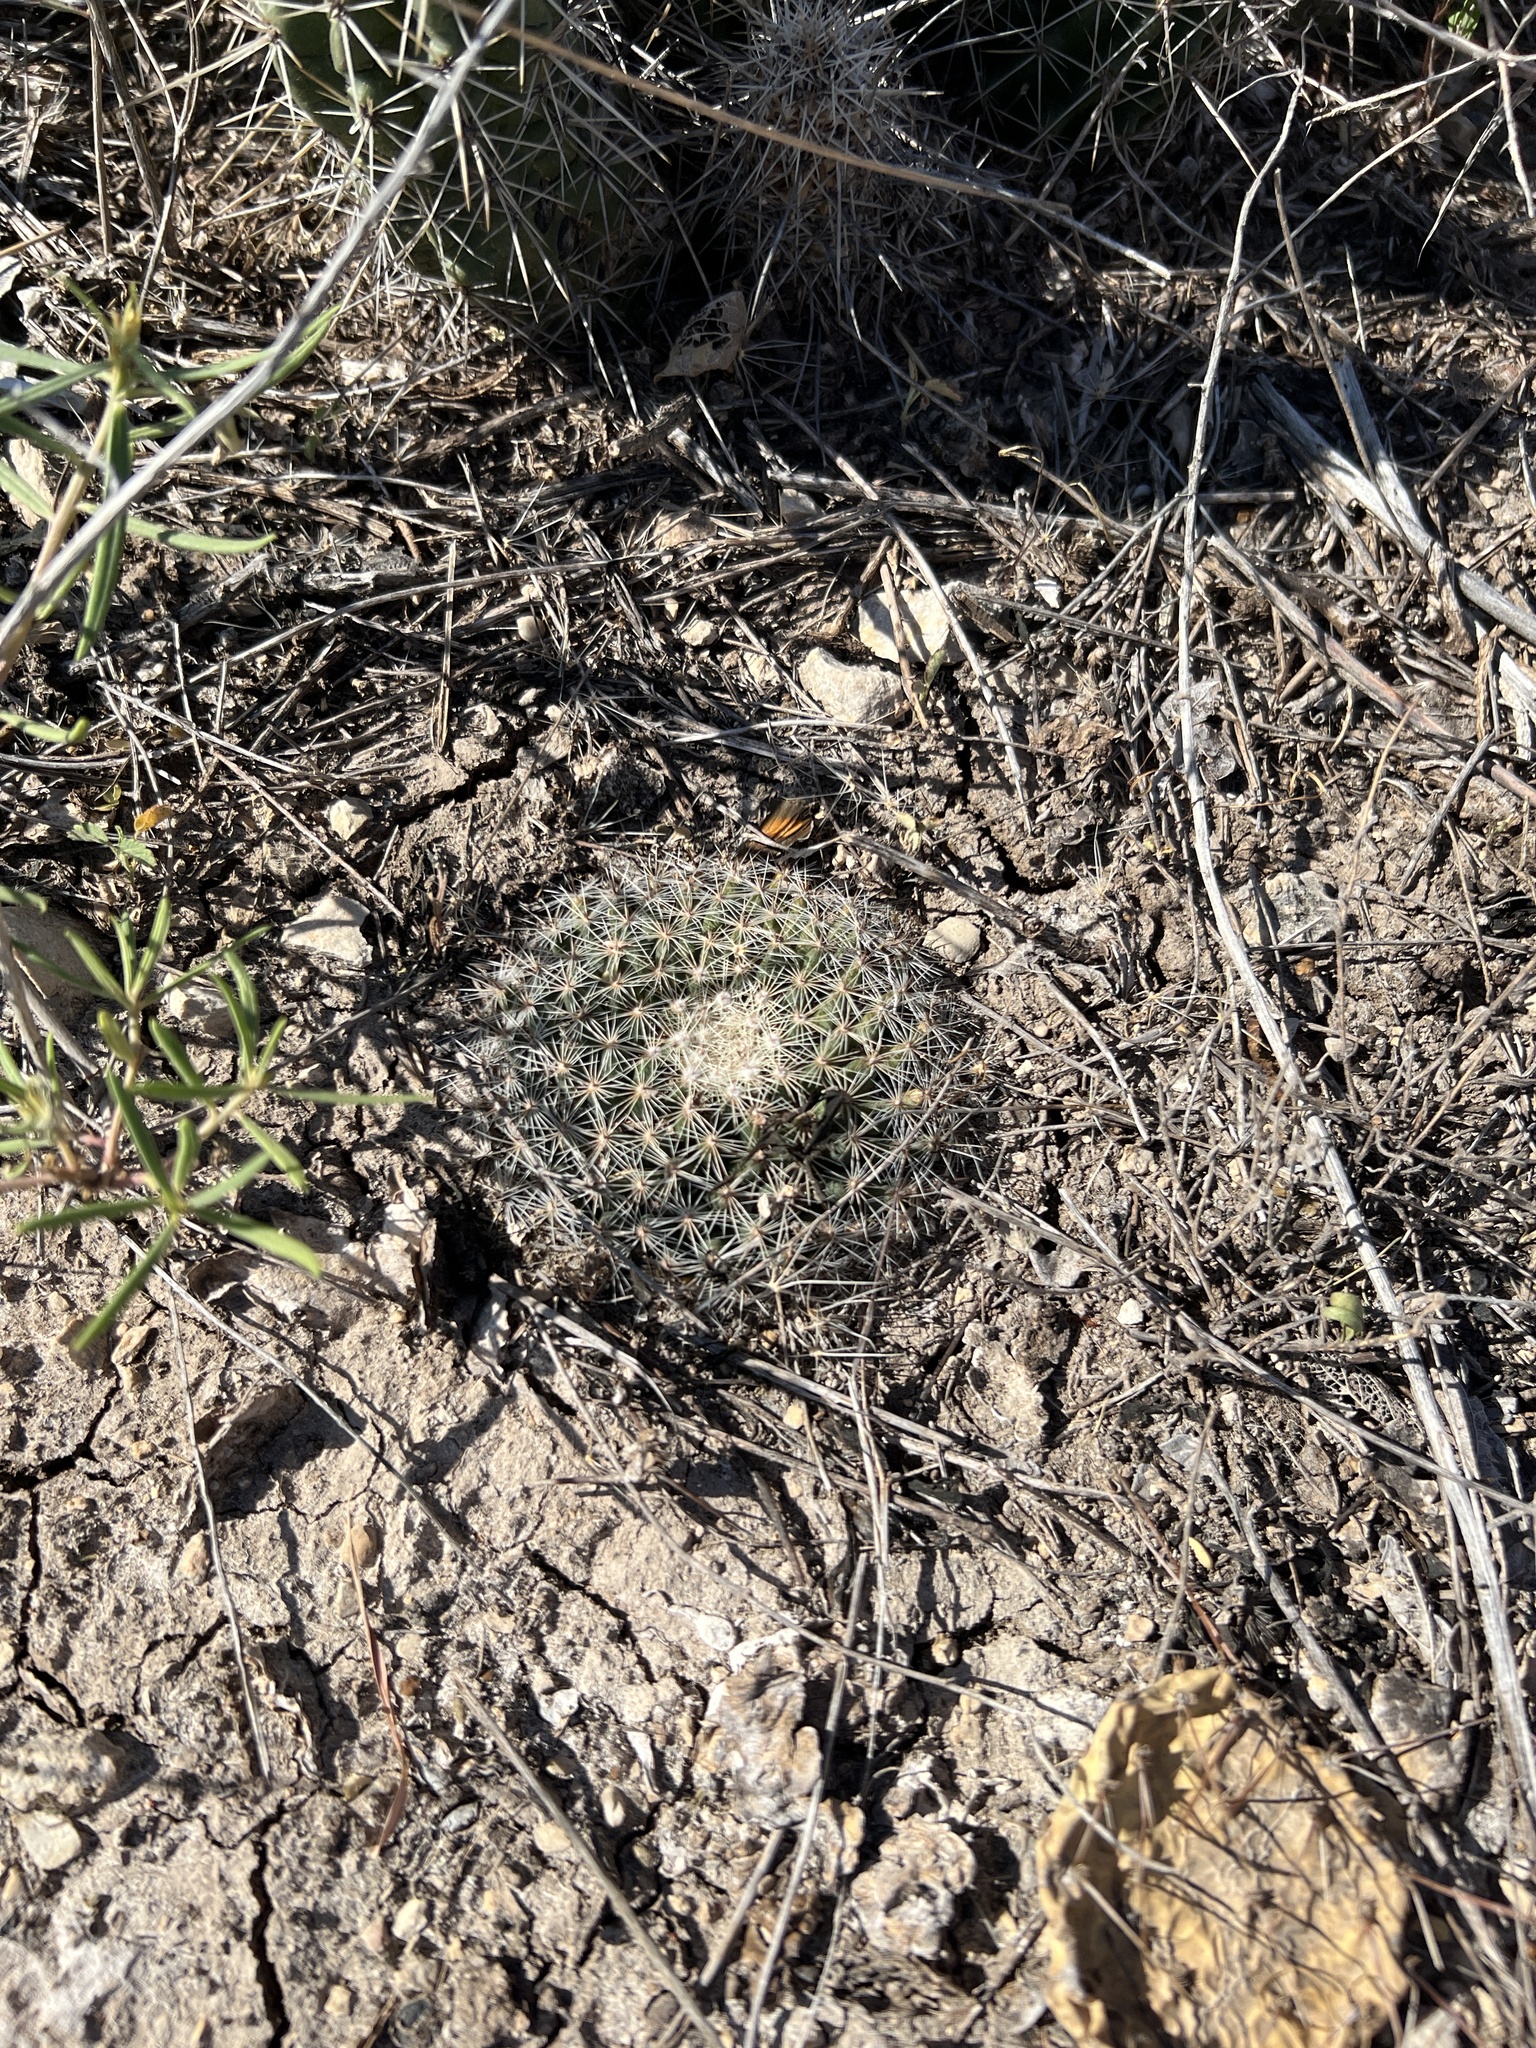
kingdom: Plantae
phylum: Tracheophyta
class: Magnoliopsida
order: Caryophyllales
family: Cactaceae
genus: Mammillaria
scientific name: Mammillaria heyderi
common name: Little nipple cactus
